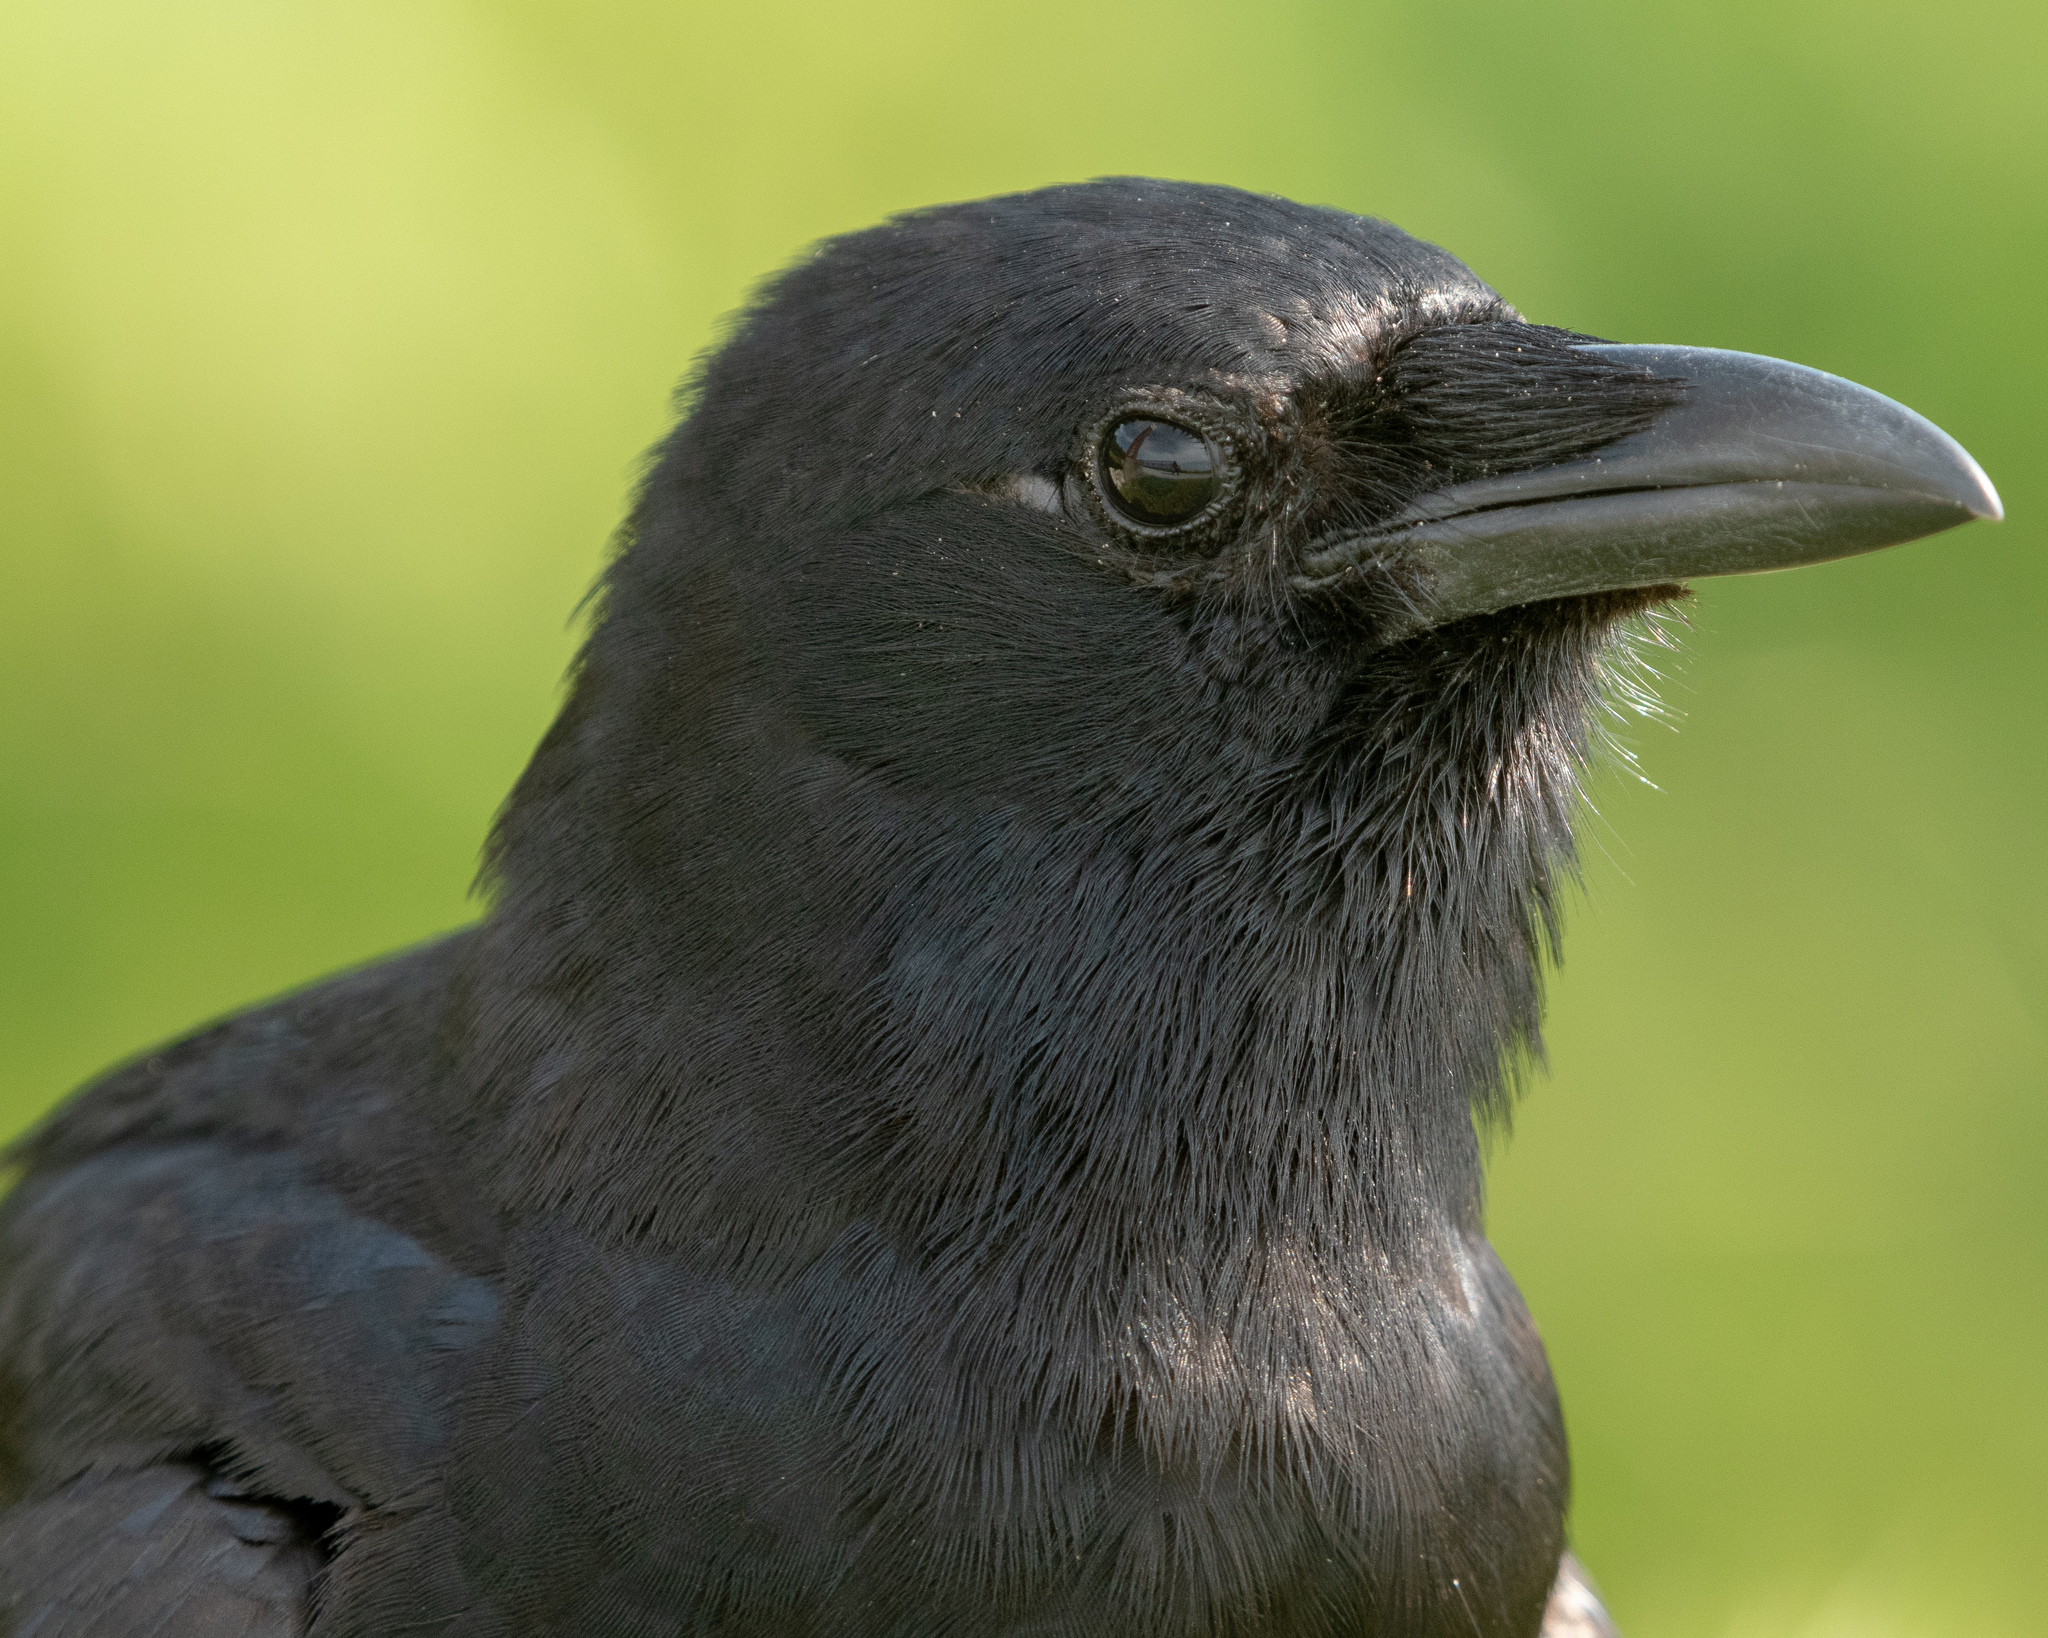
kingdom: Animalia
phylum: Chordata
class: Aves
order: Passeriformes
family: Corvidae
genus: Corvus
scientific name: Corvus ossifragus
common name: Fish crow
